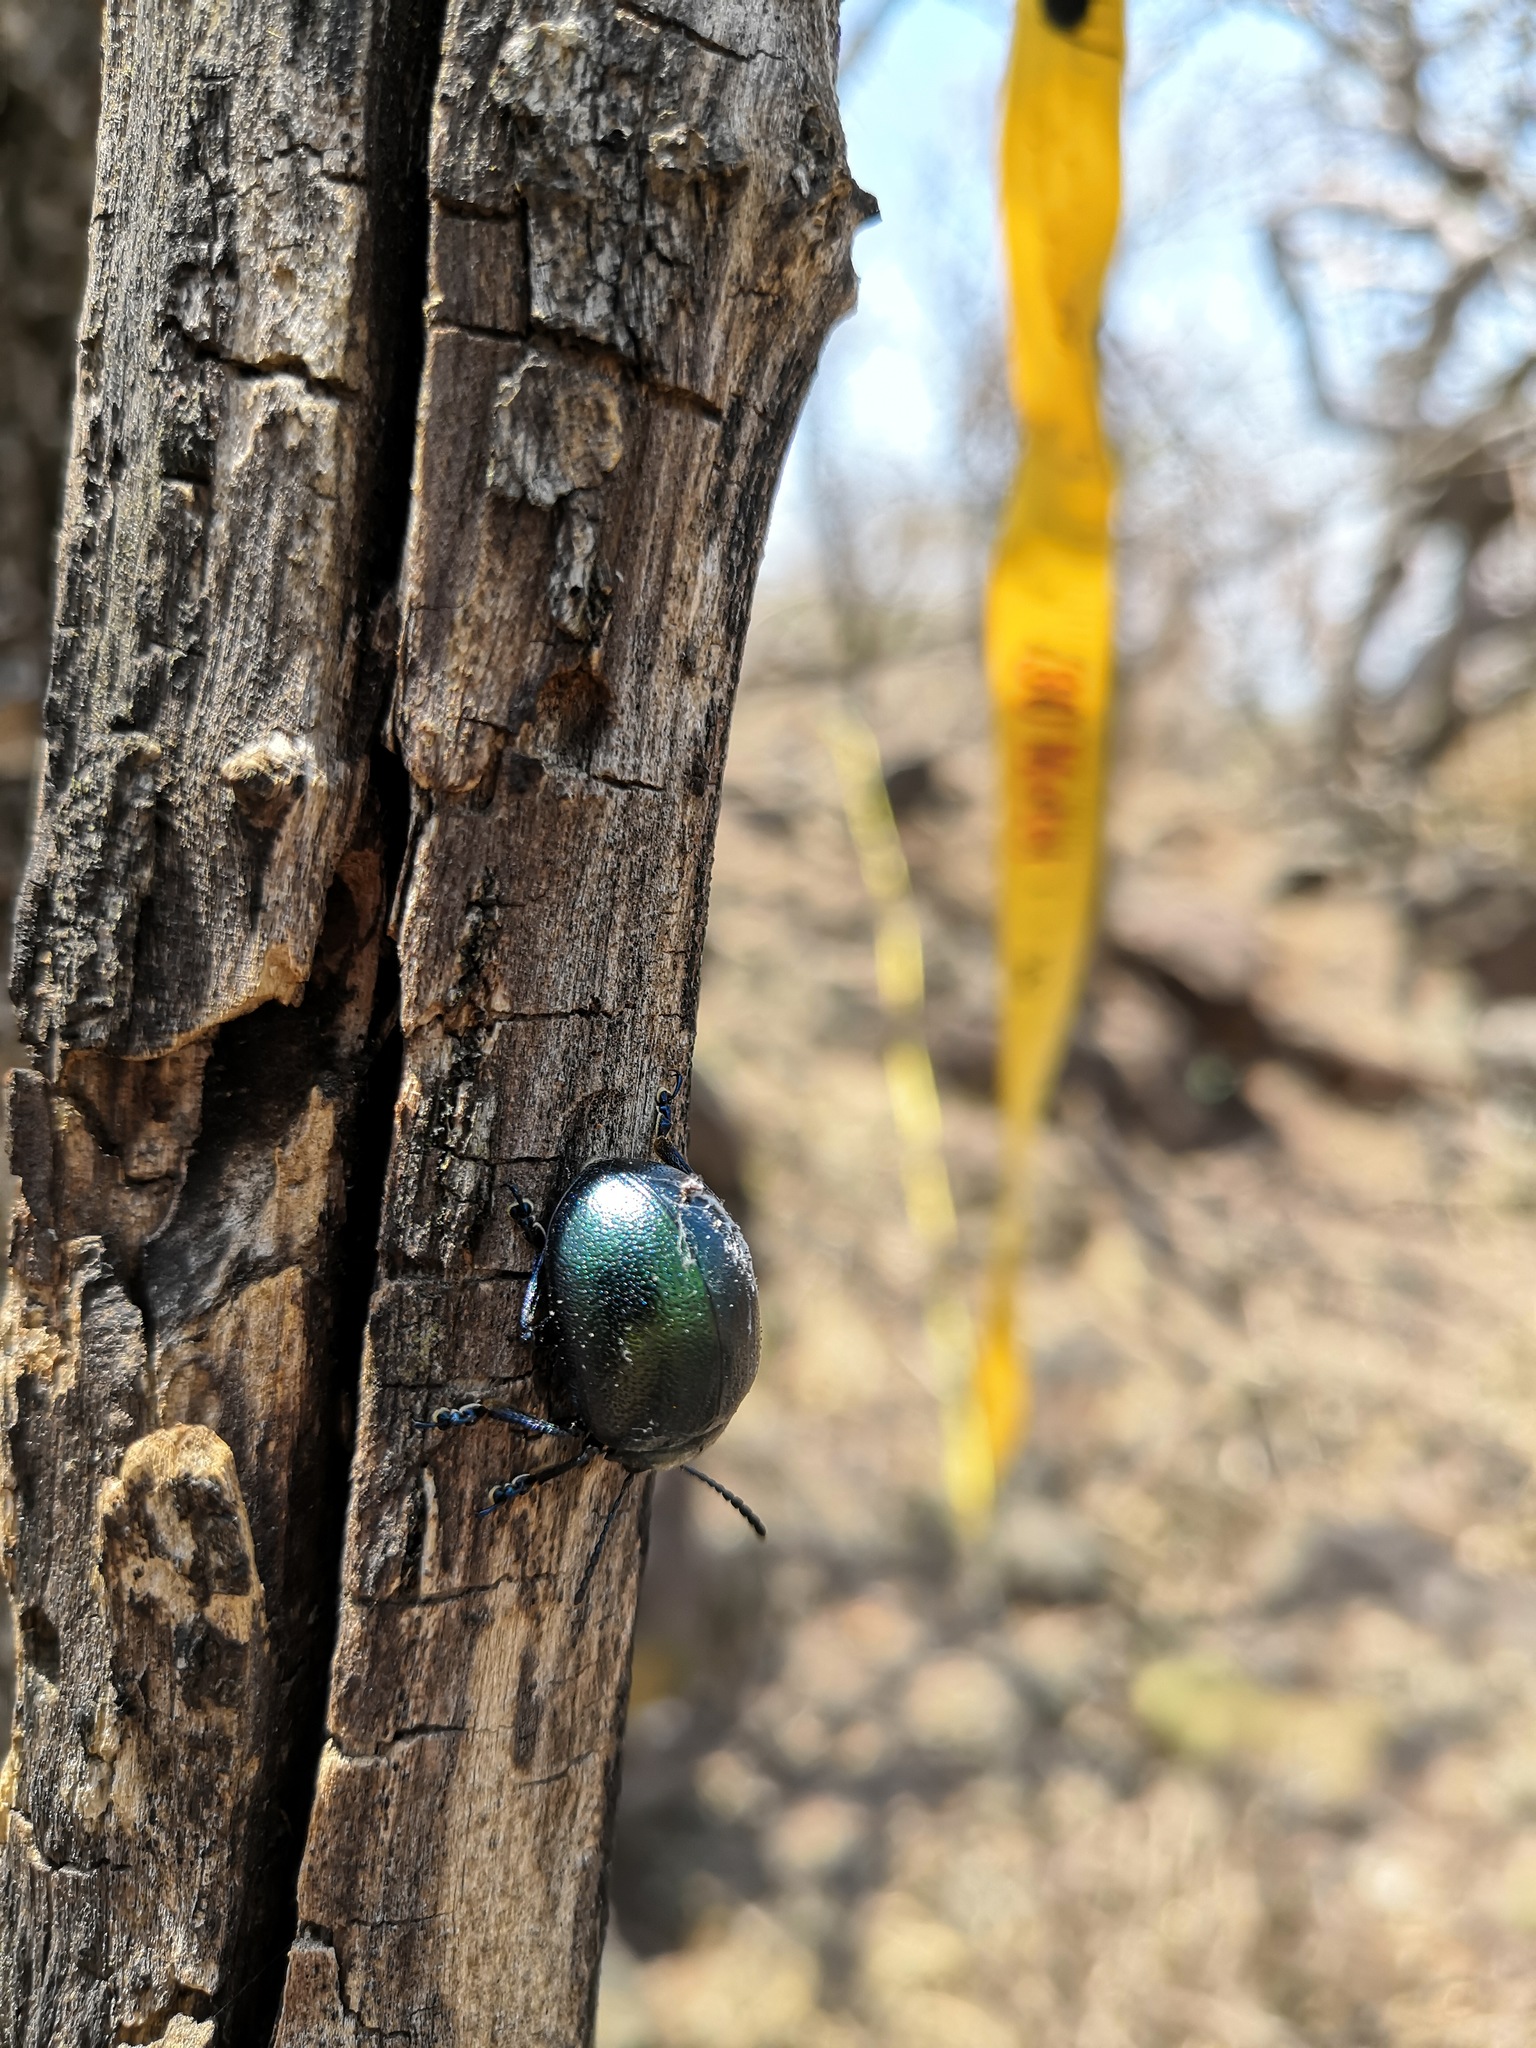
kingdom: Animalia
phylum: Arthropoda
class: Insecta
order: Coleoptera
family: Chrysomelidae
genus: Leptinotarsa
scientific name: Leptinotarsa behrensi
